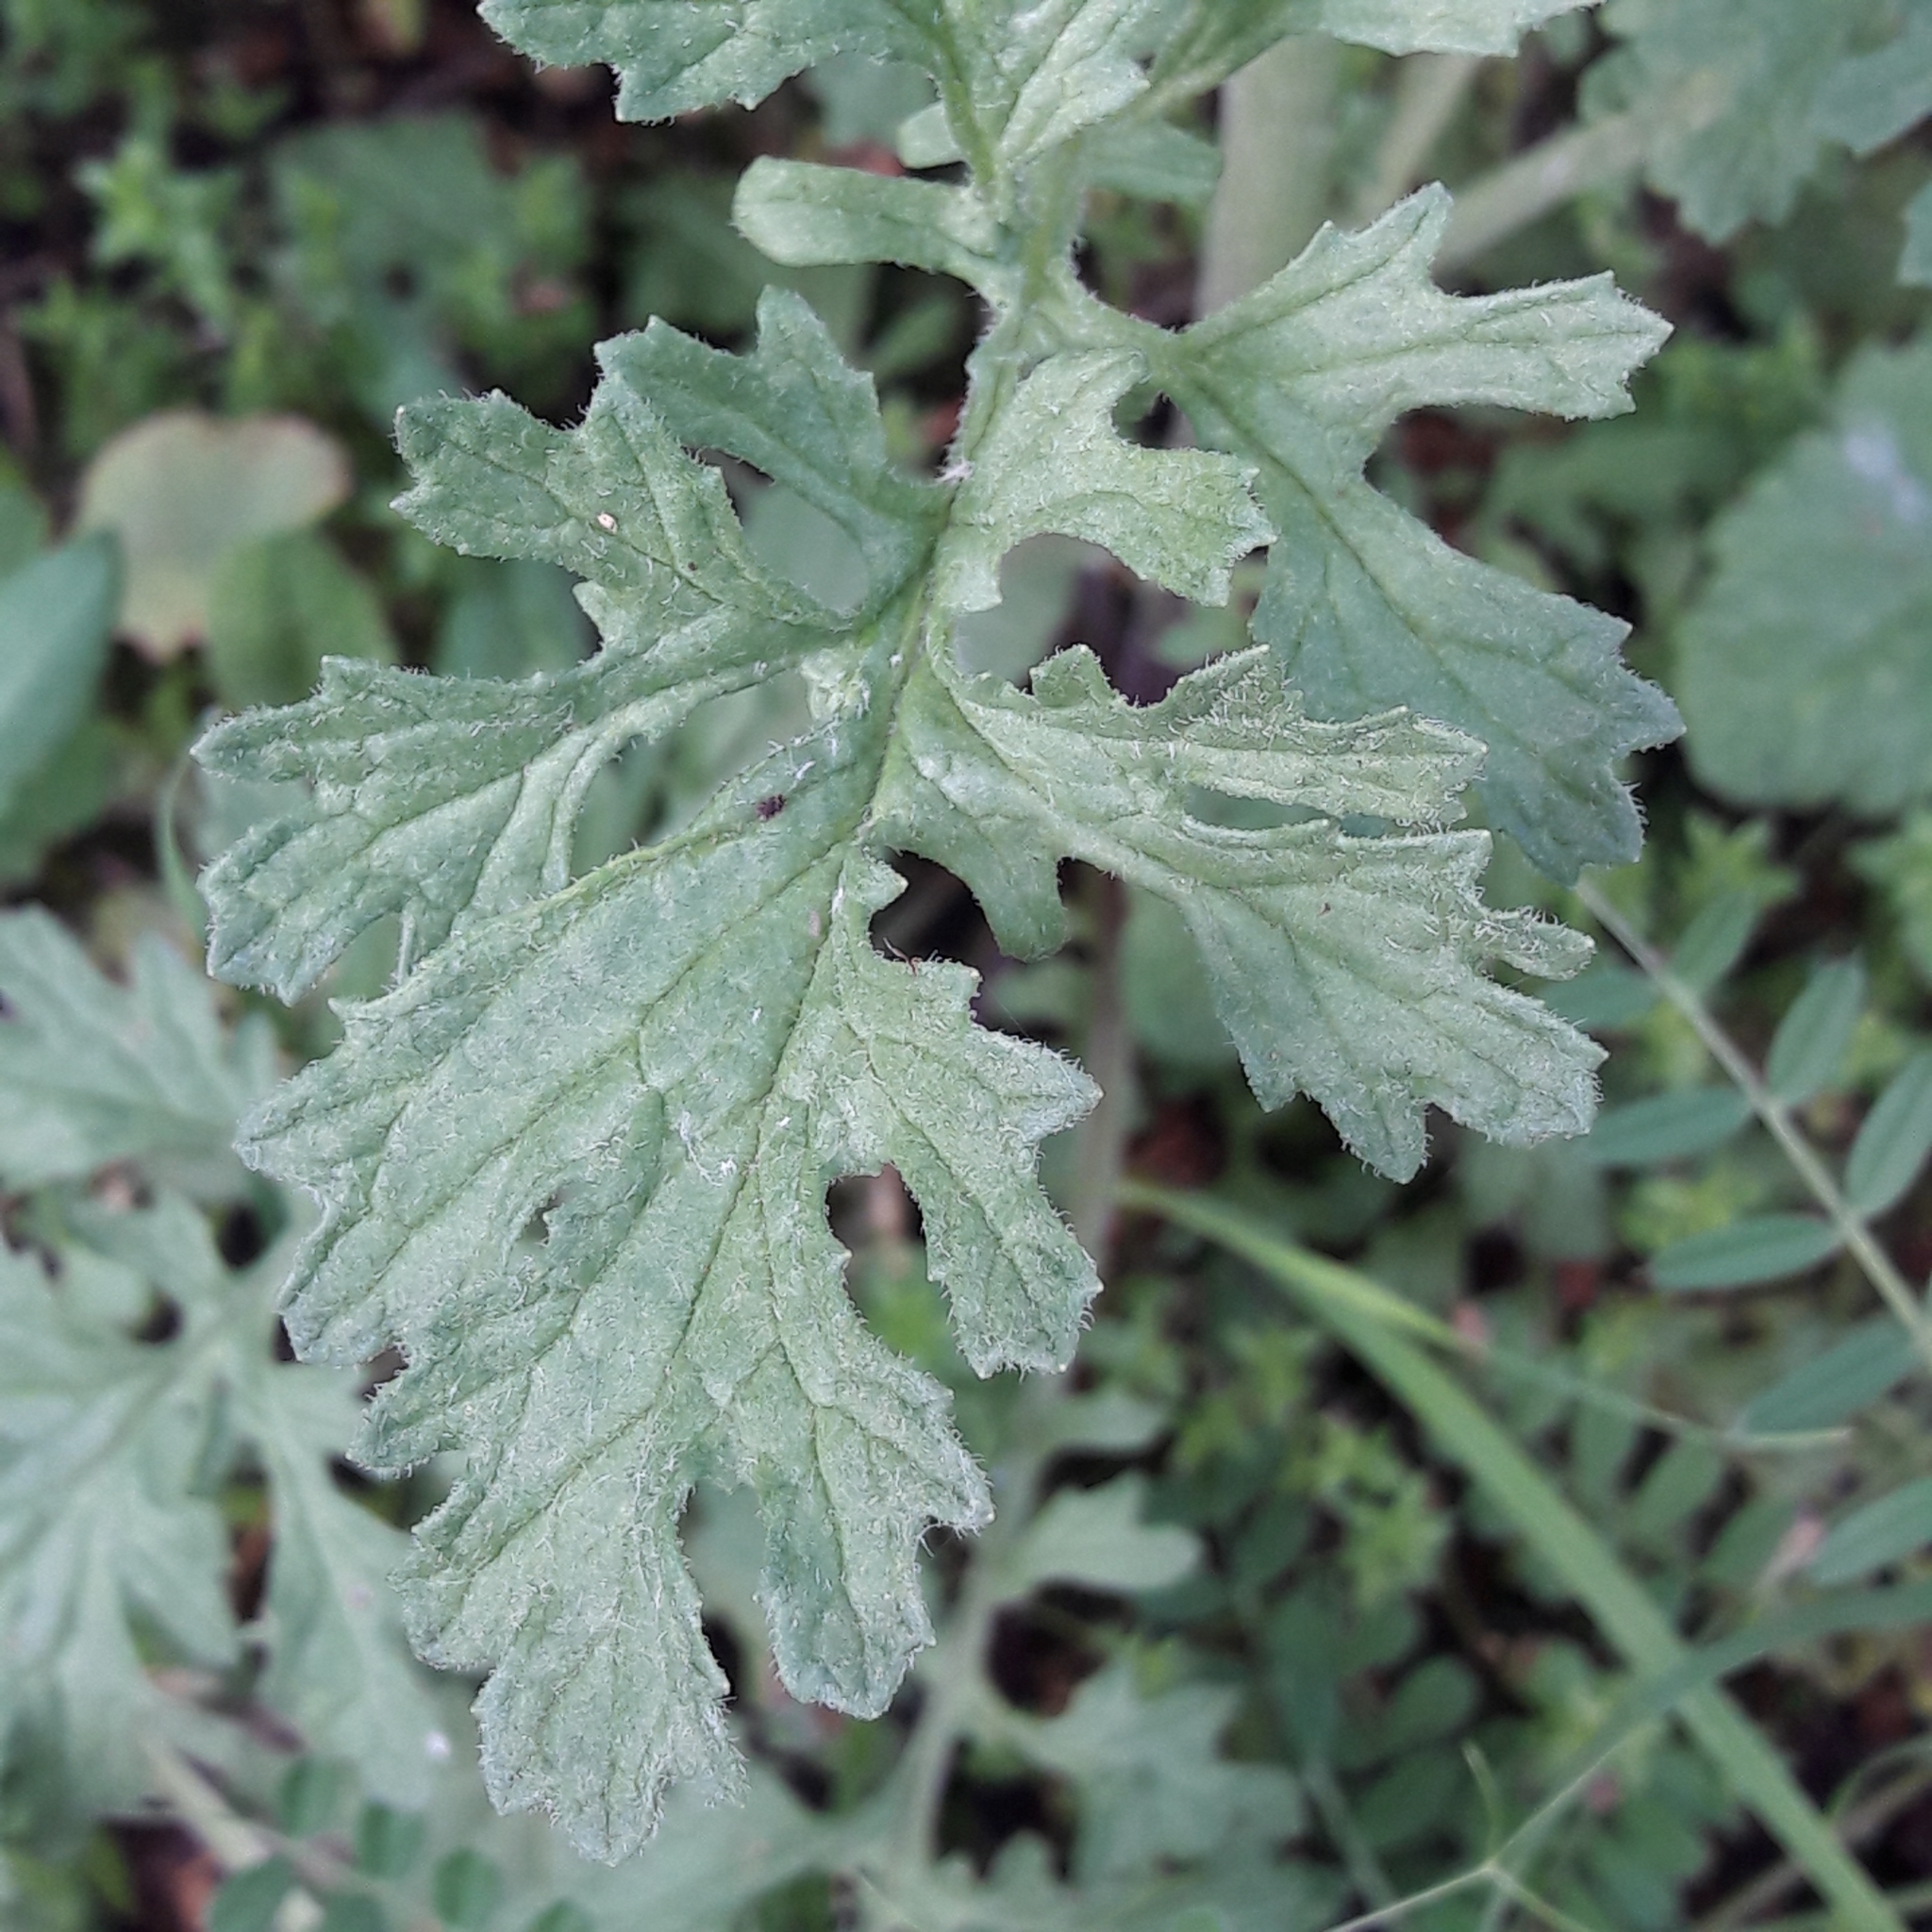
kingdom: Plantae
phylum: Tracheophyta
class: Magnoliopsida
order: Asterales
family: Asteraceae
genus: Jacobaea
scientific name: Jacobaea vulgaris
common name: Stinking willie
